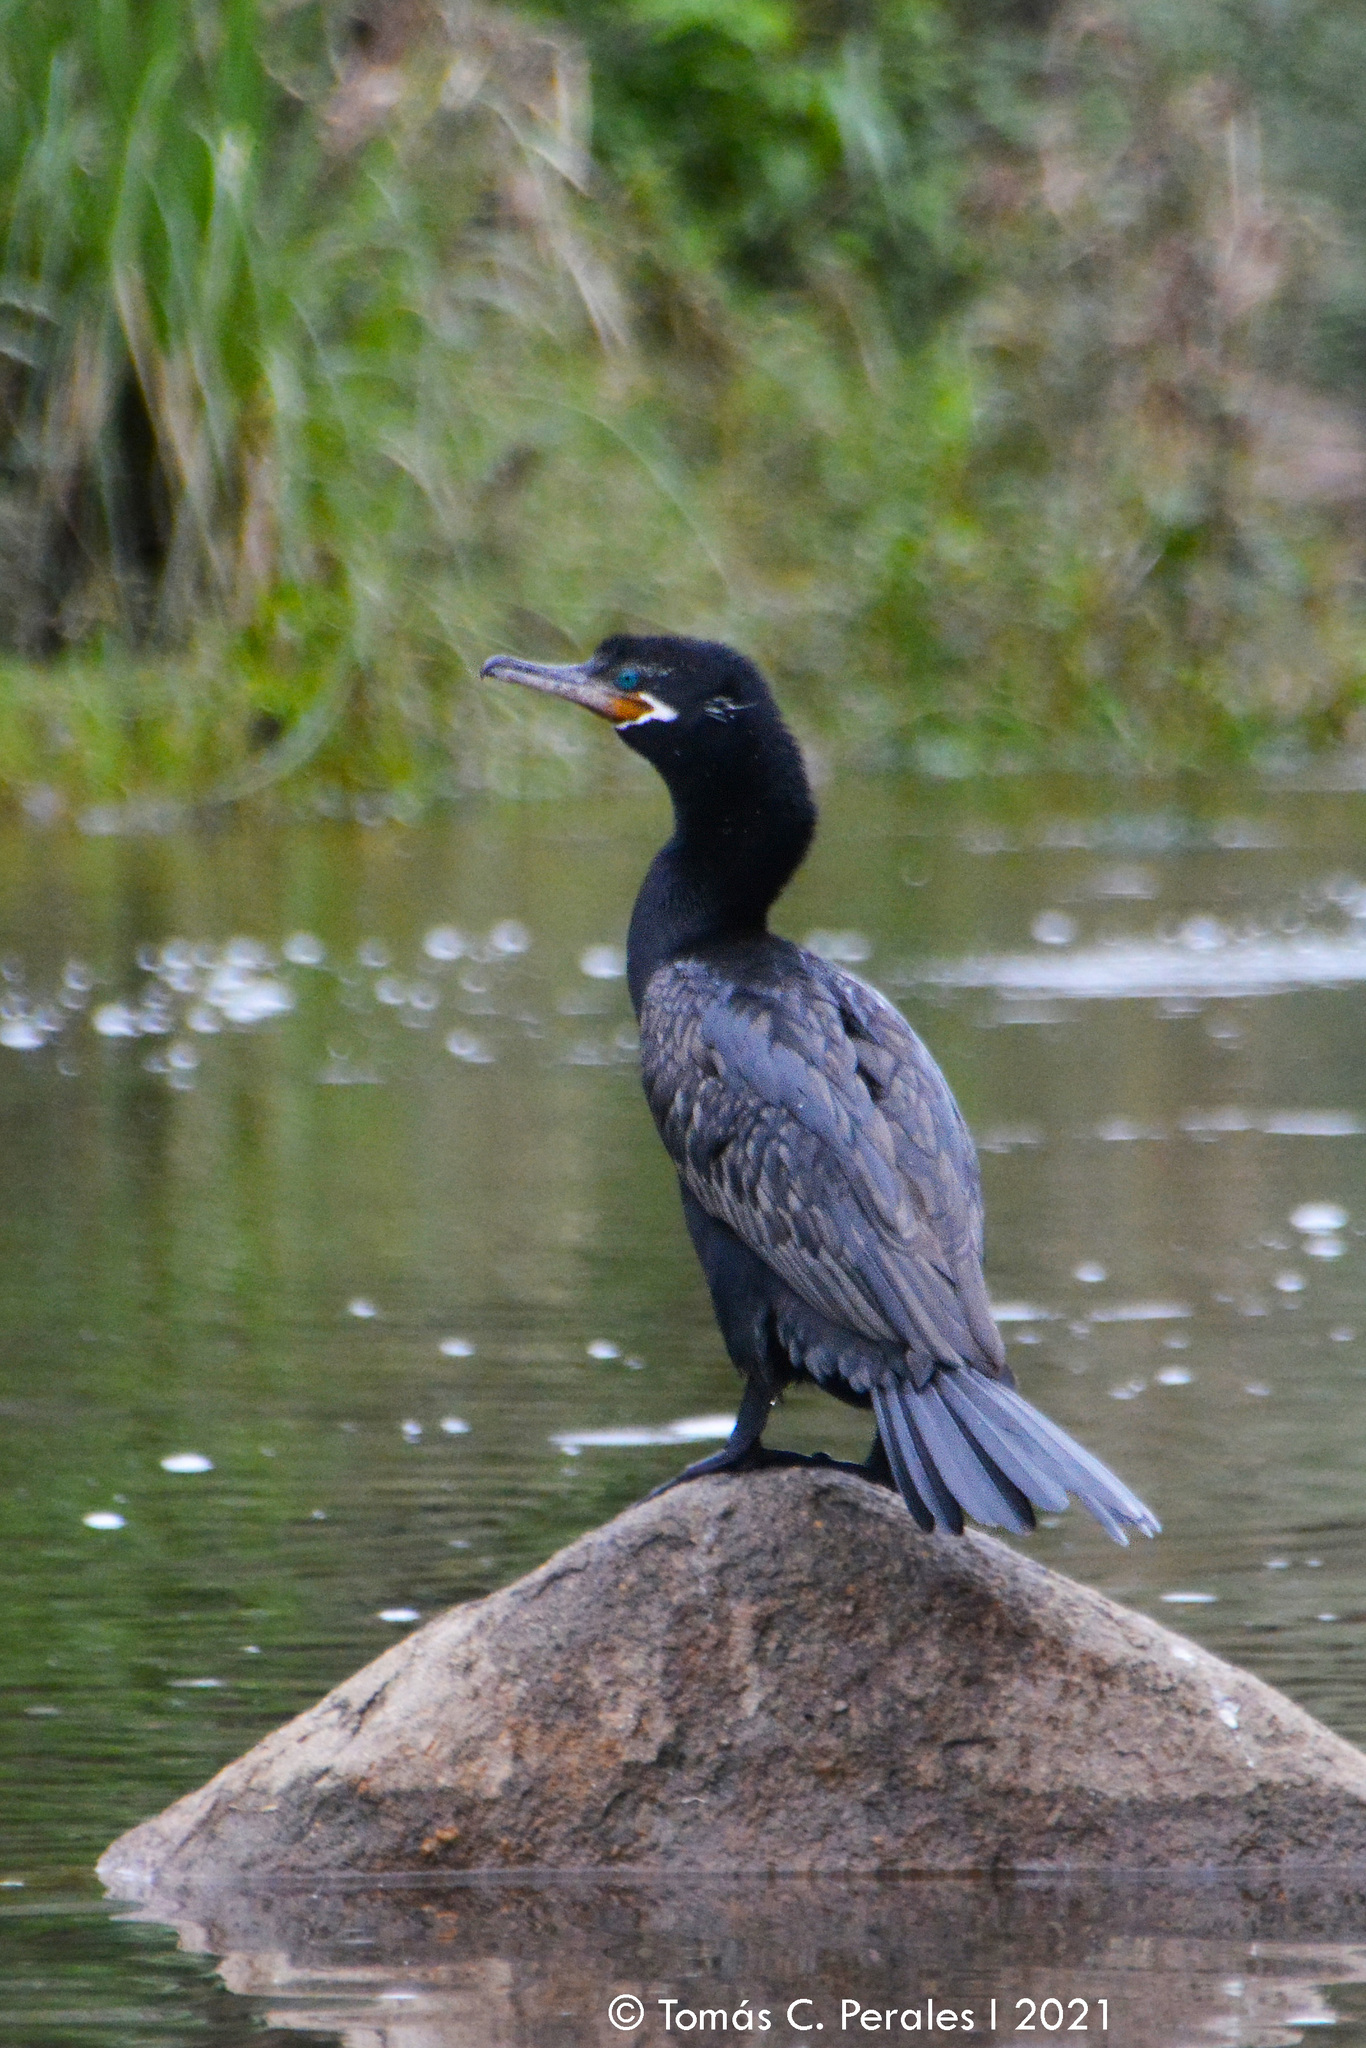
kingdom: Animalia
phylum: Chordata
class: Aves
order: Suliformes
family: Phalacrocoracidae
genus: Phalacrocorax
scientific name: Phalacrocorax brasilianus
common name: Neotropic cormorant
